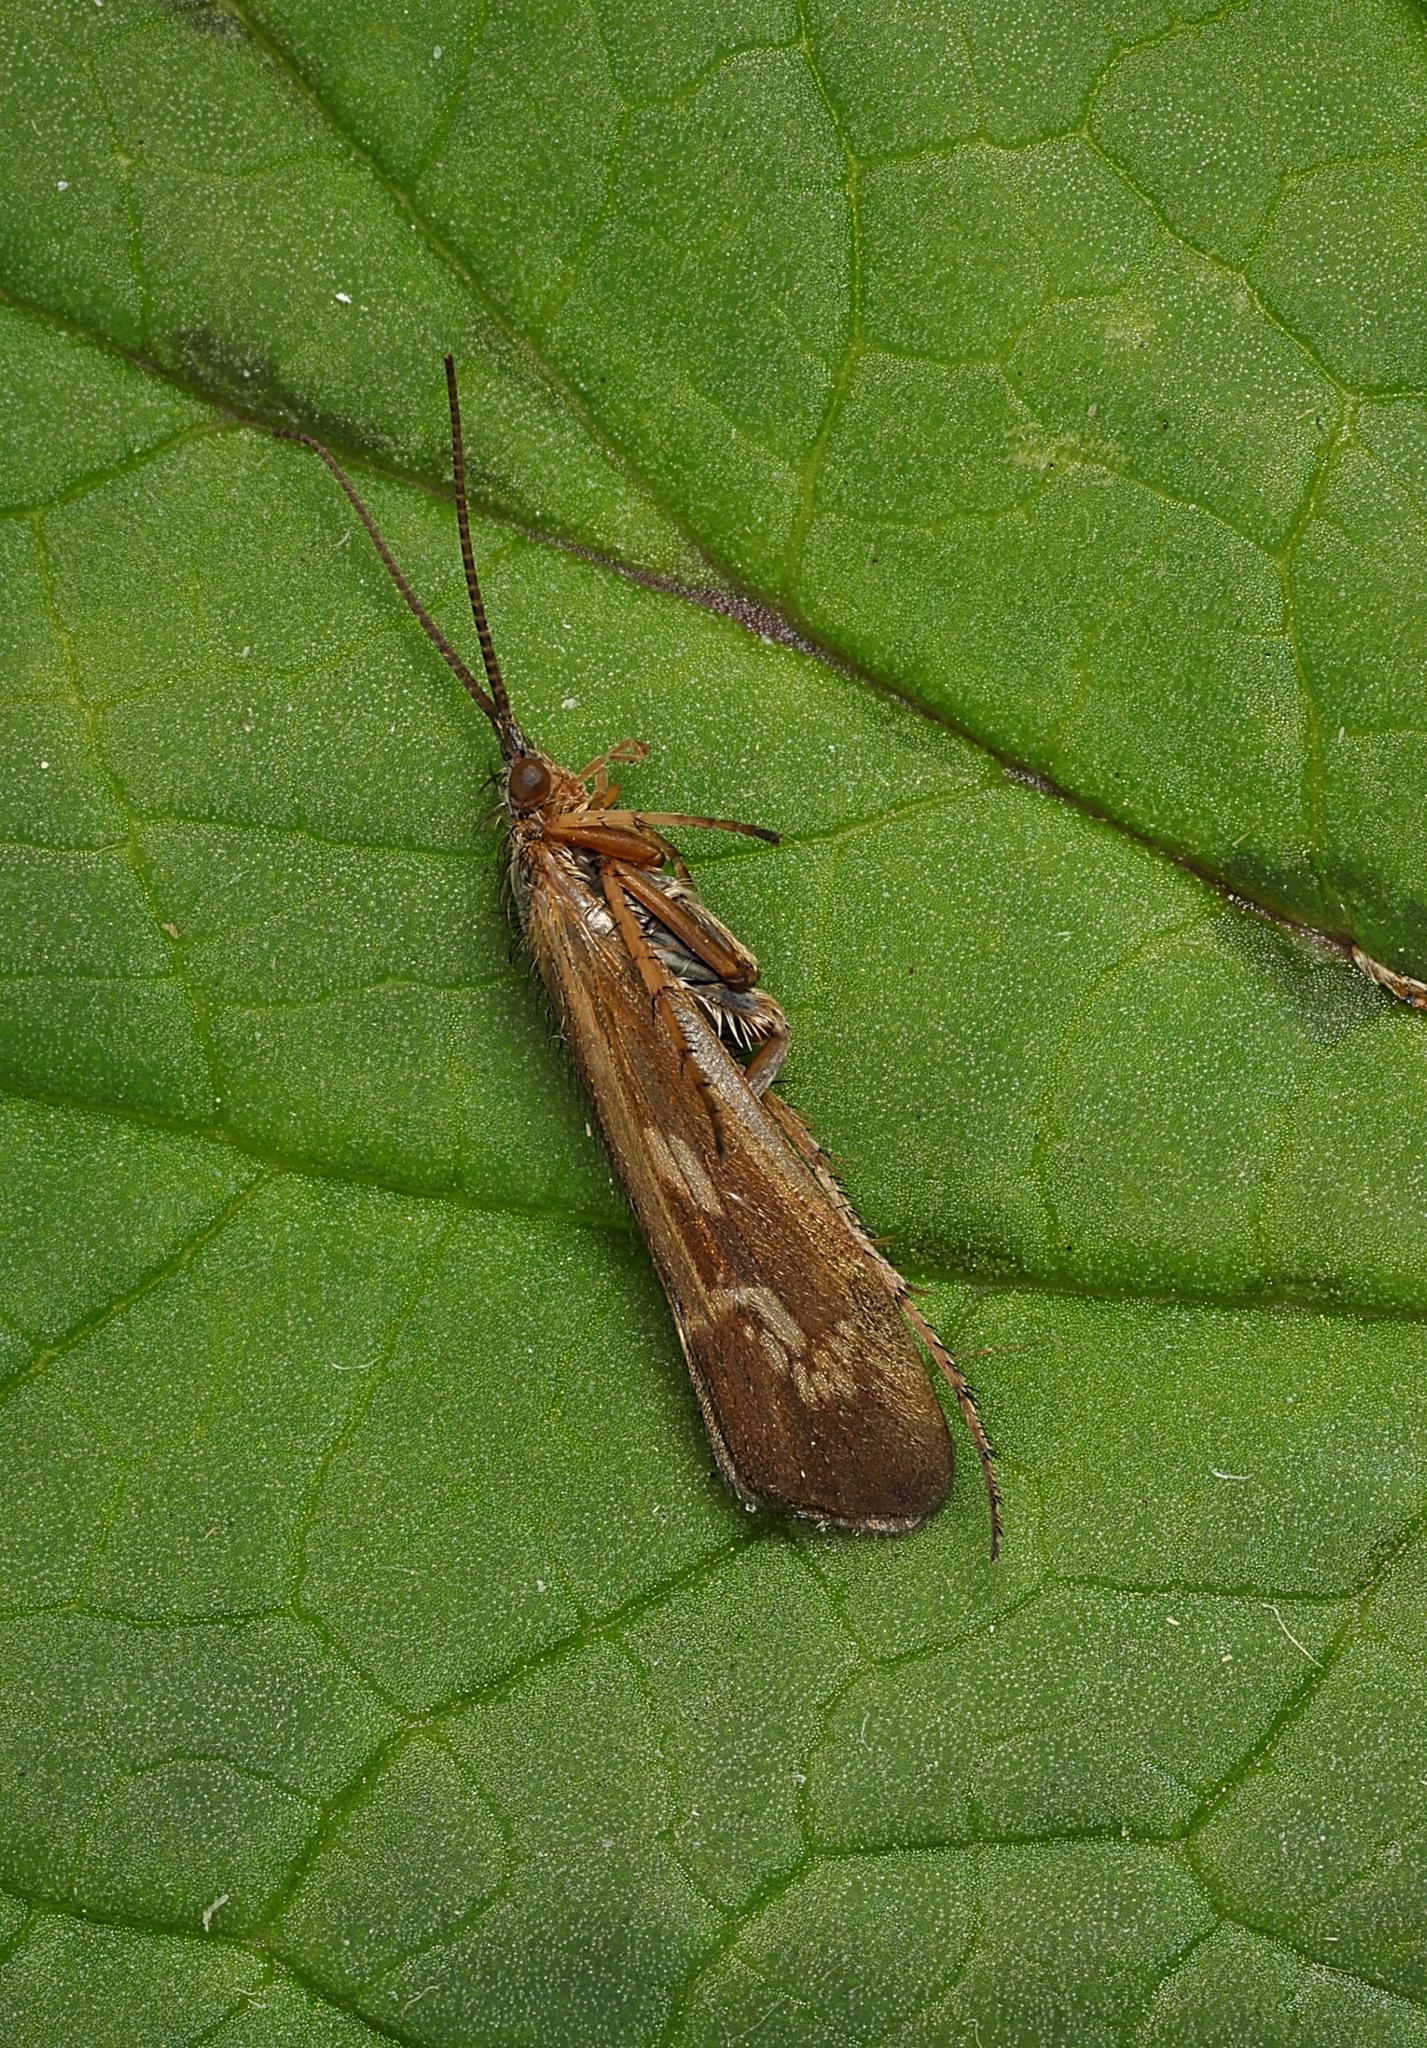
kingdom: Animalia
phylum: Arthropoda
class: Insecta
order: Trichoptera
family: Limnephilidae
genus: Limnephilus
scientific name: Limnephilus auricula
